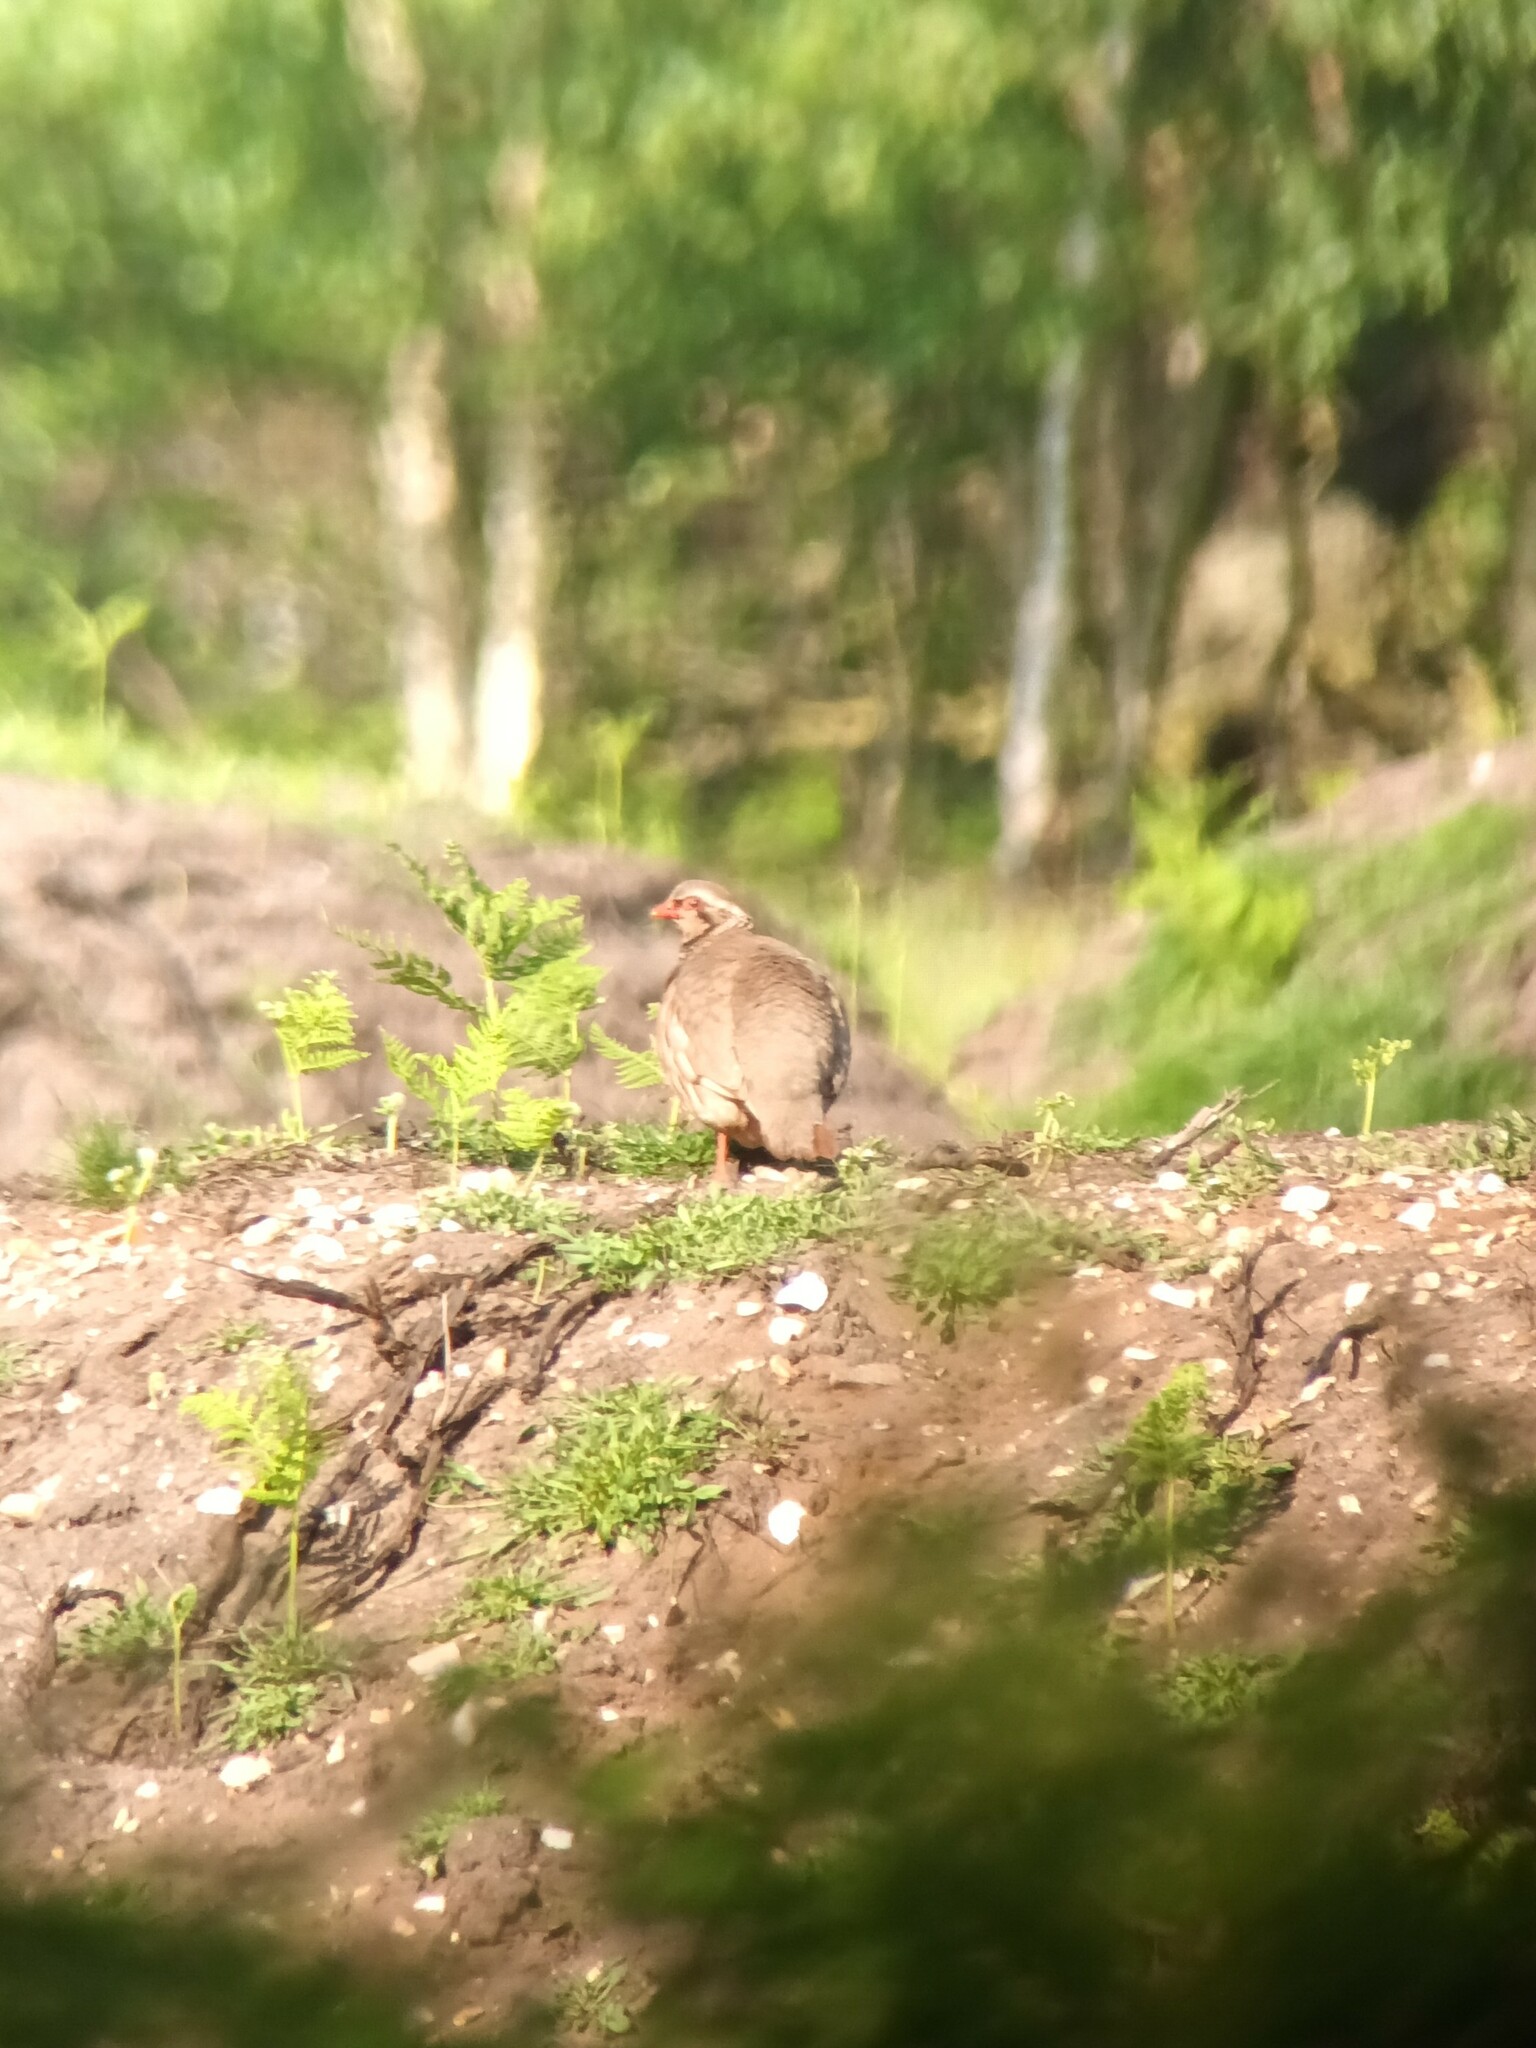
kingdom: Animalia
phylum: Chordata
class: Aves
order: Galliformes
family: Phasianidae
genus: Alectoris
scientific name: Alectoris rufa
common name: Red-legged partridge
